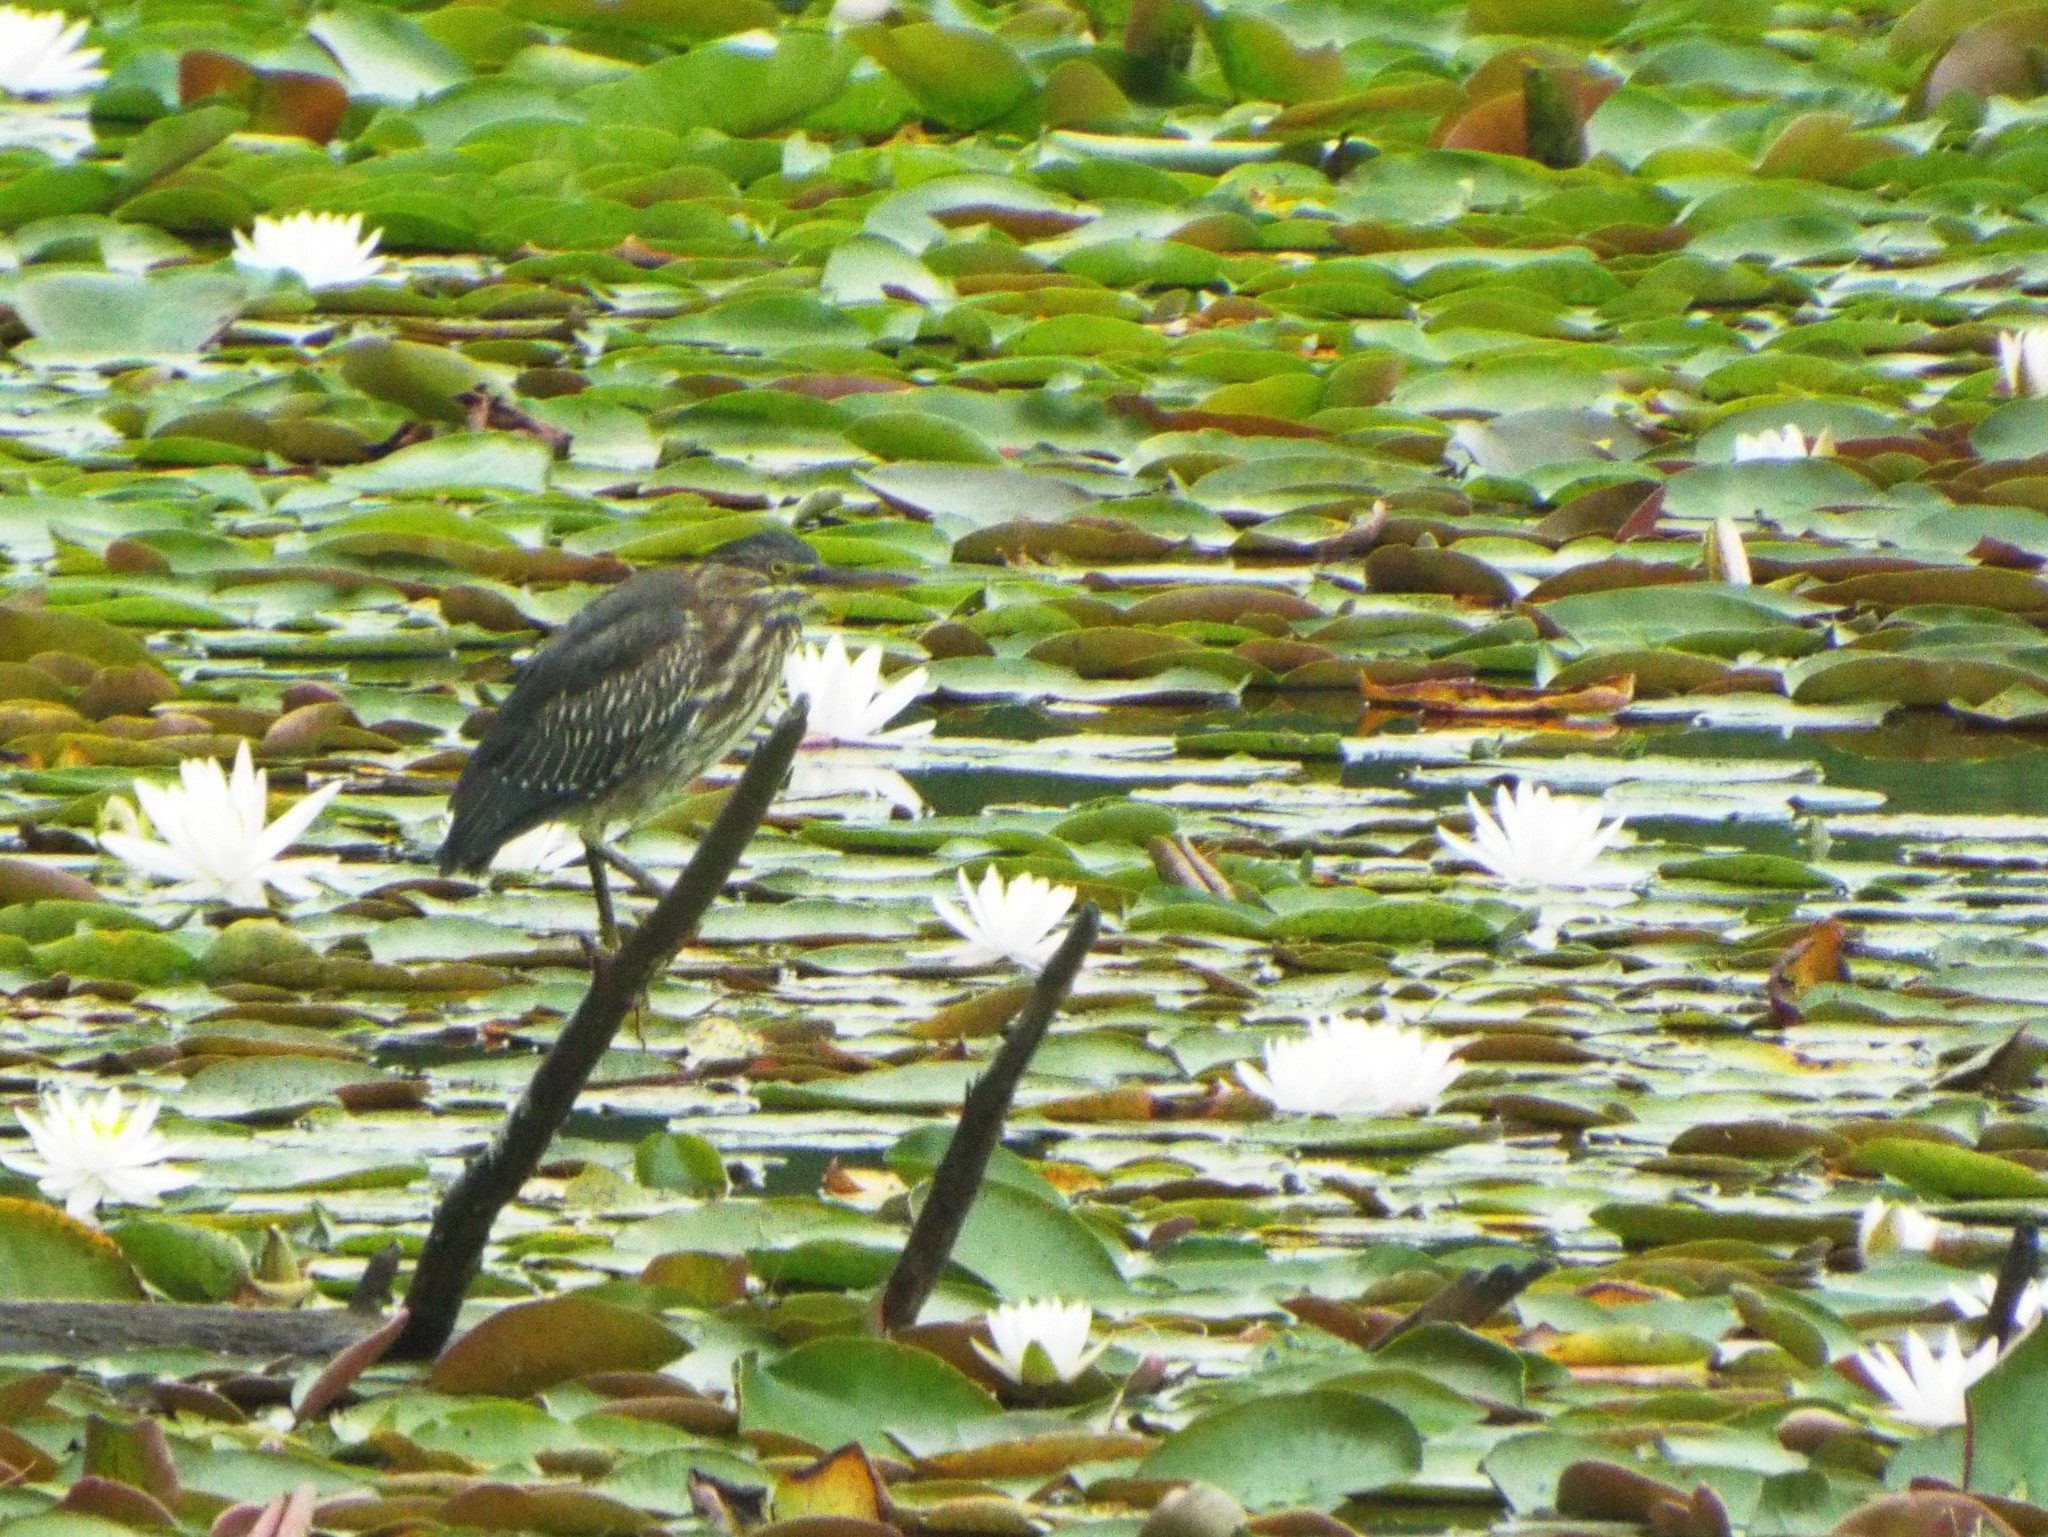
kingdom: Animalia
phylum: Chordata
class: Aves
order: Pelecaniformes
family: Ardeidae
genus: Butorides
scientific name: Butorides virescens
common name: Green heron
